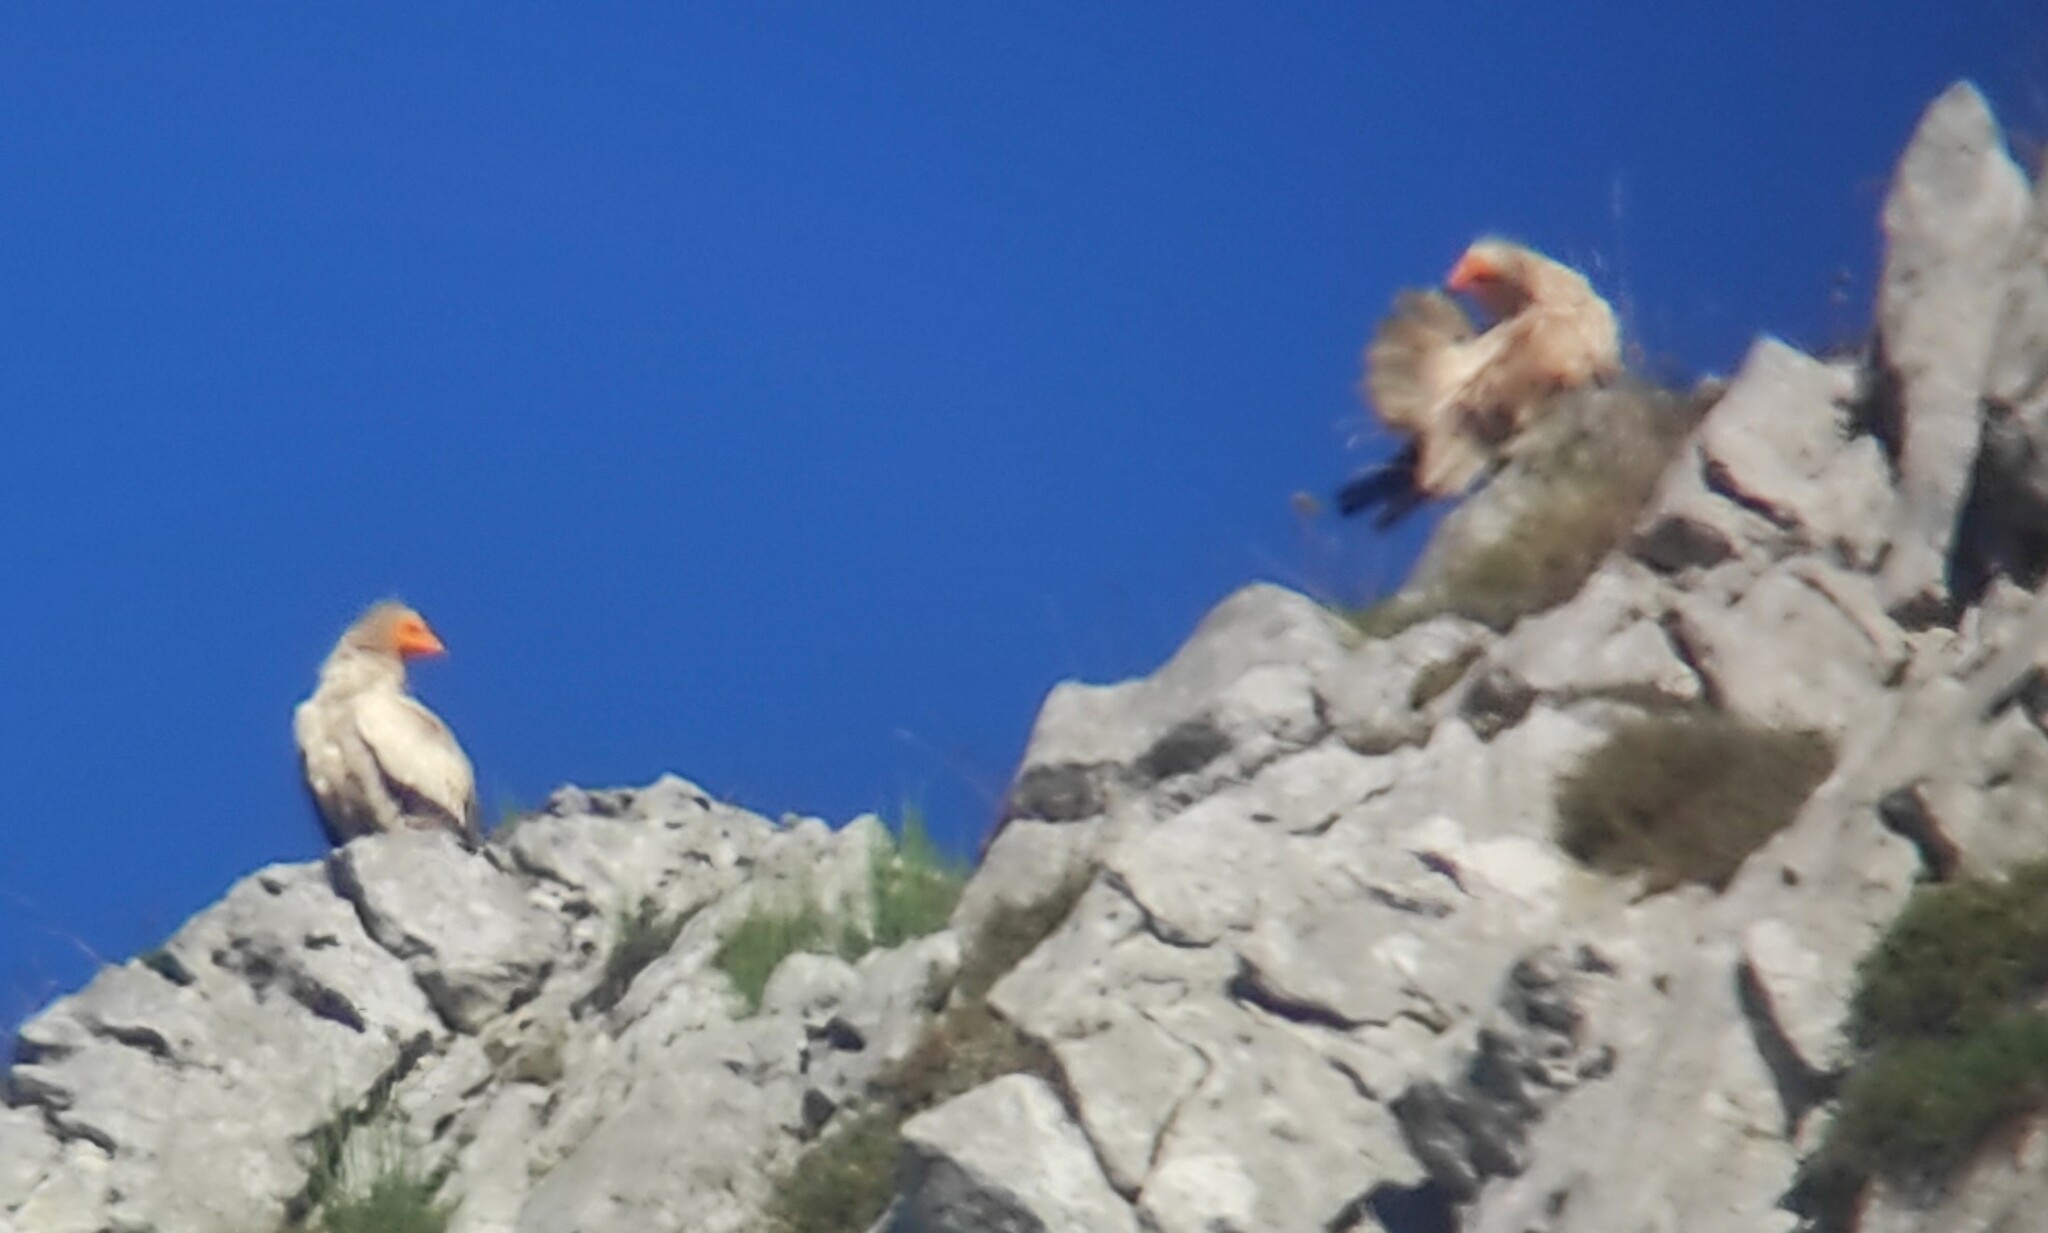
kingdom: Animalia
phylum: Chordata
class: Aves
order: Accipitriformes
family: Accipitridae
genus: Neophron
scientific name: Neophron percnopterus
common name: Egyptian vulture
